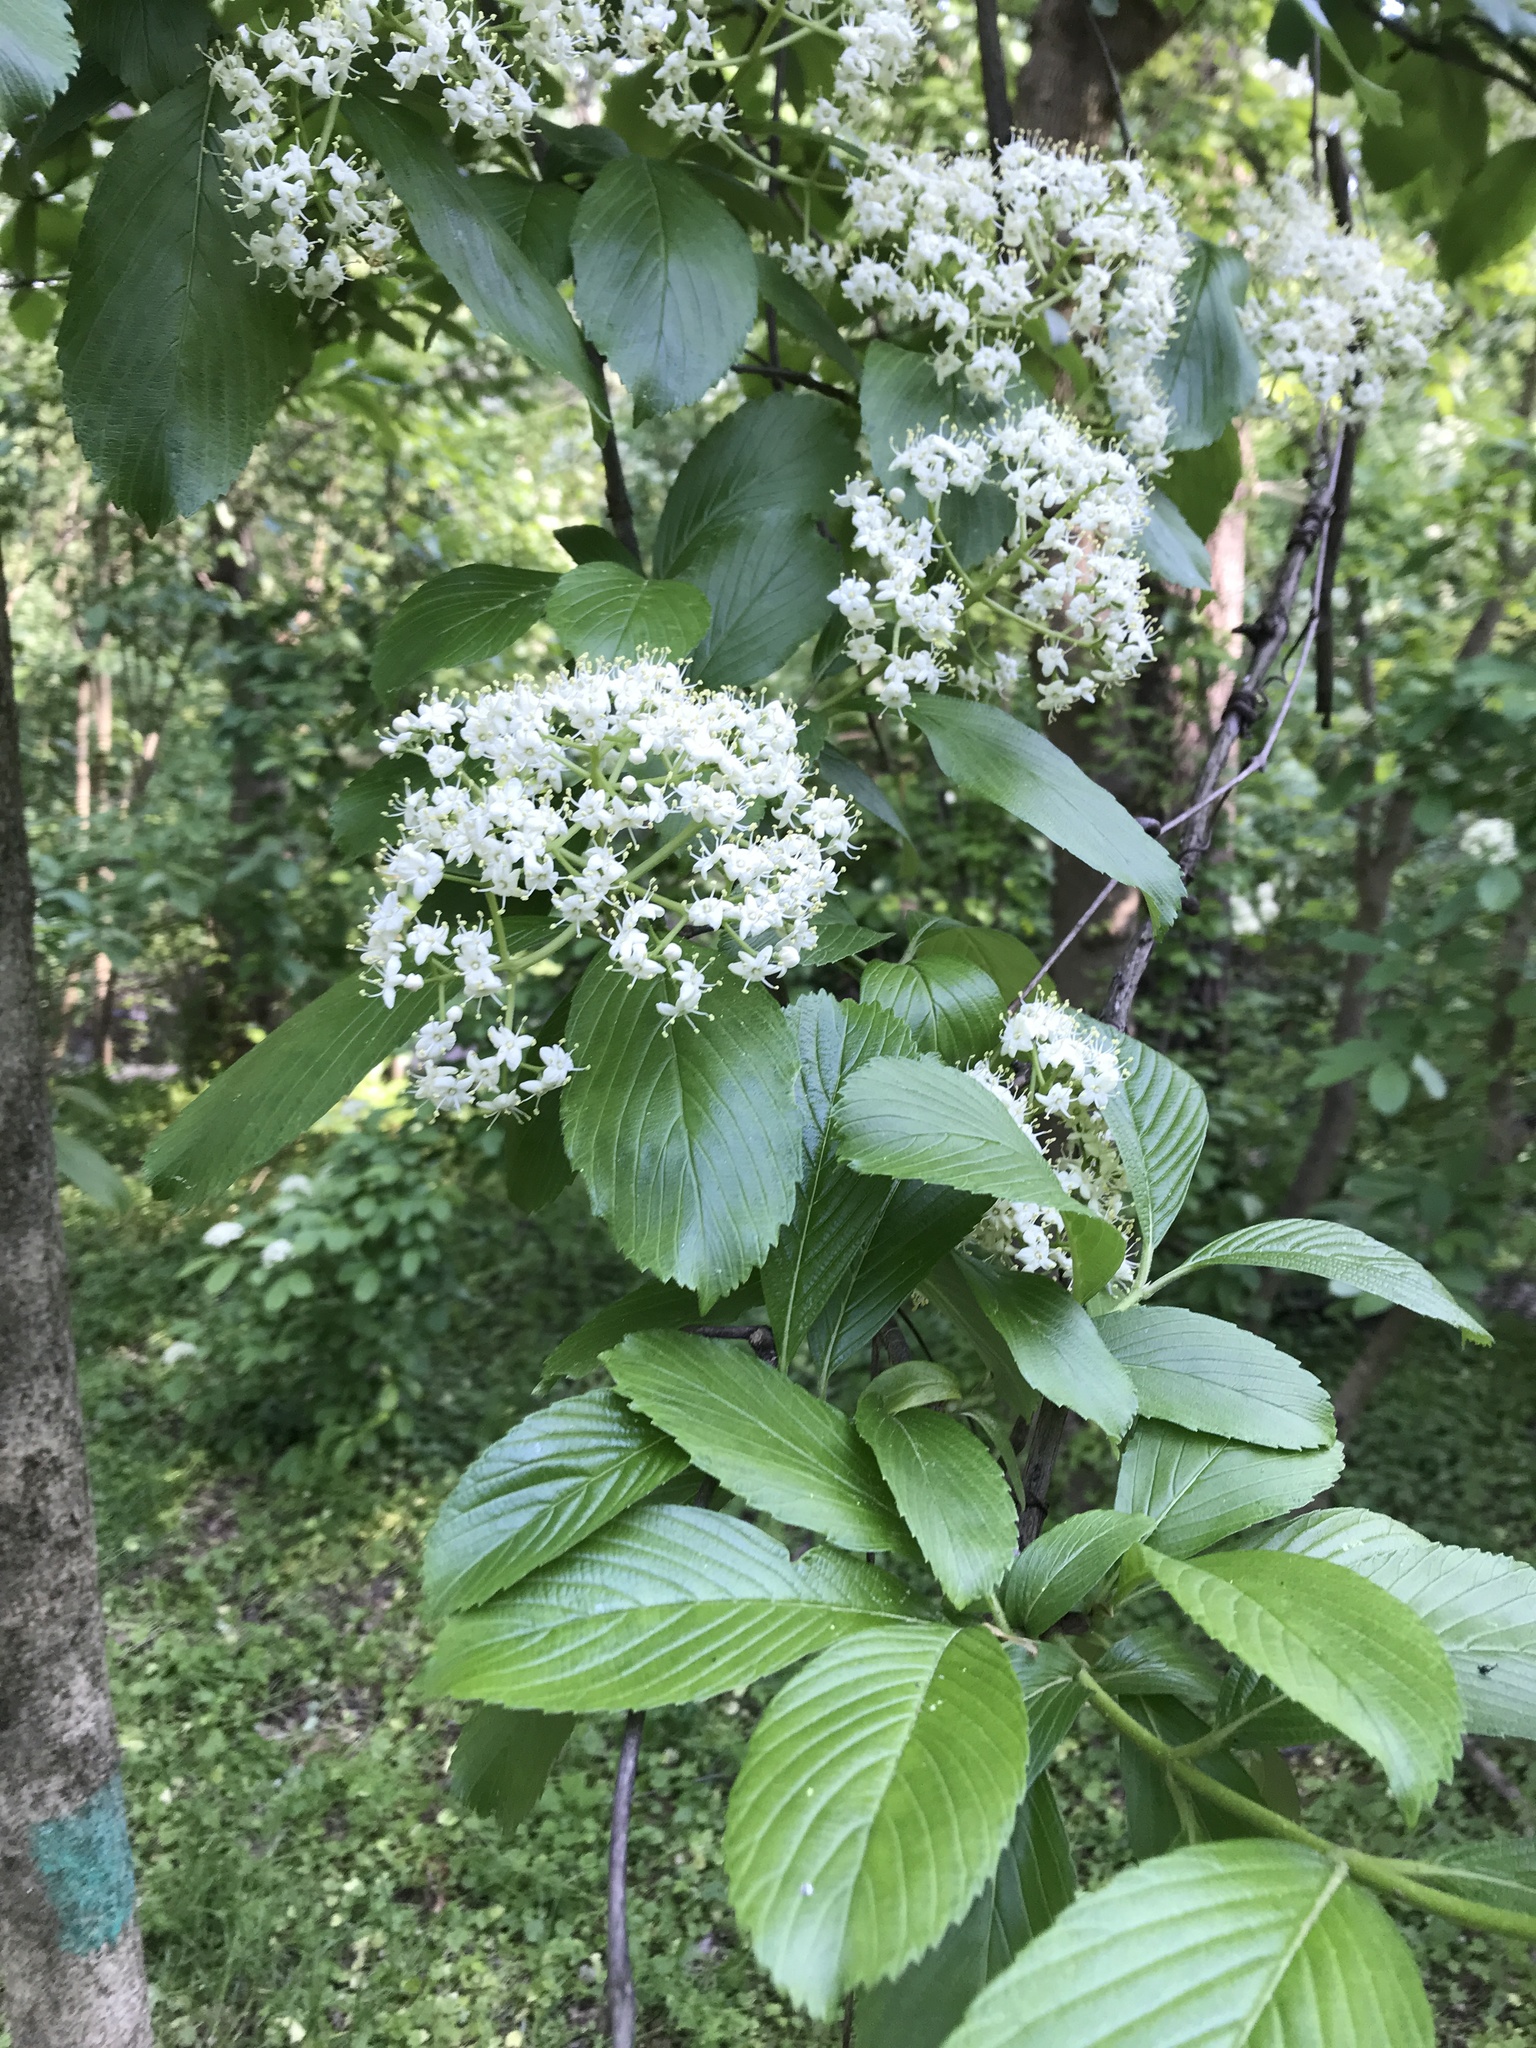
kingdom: Plantae
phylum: Tracheophyta
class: Magnoliopsida
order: Dipsacales
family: Viburnaceae
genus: Viburnum
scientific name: Viburnum sieboldii
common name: Siebold's arrowwood
